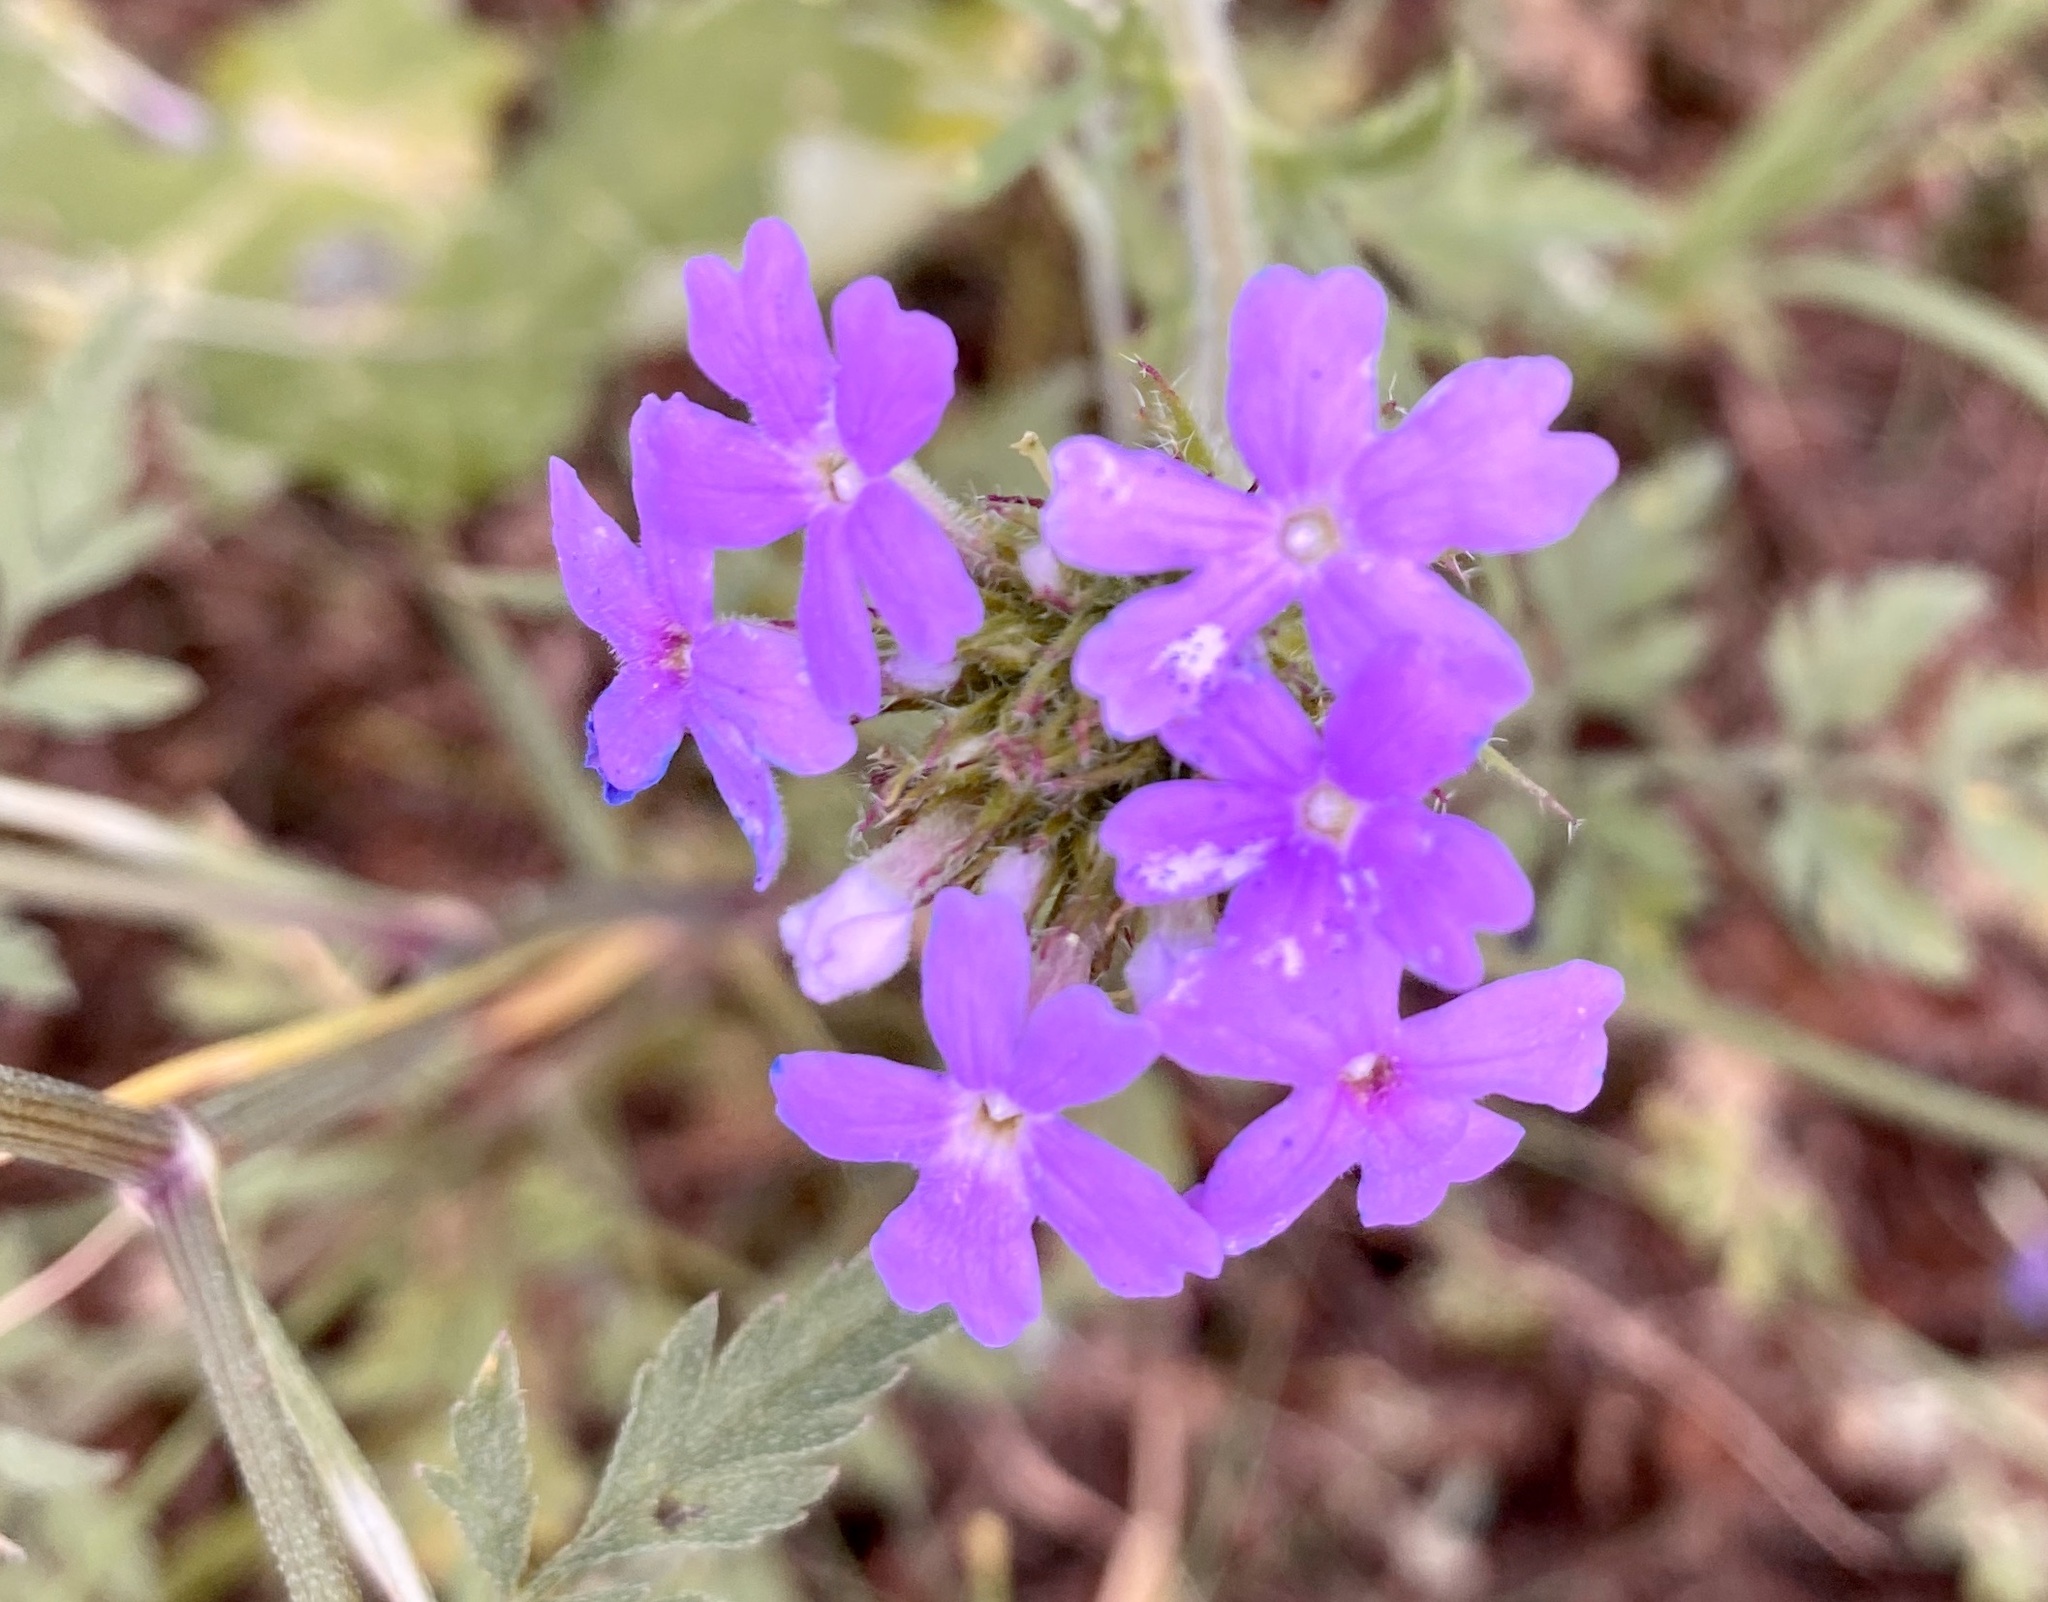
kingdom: Plantae
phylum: Tracheophyta
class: Magnoliopsida
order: Lamiales
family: Verbenaceae
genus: Verbena
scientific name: Verbena bipinnatifida
